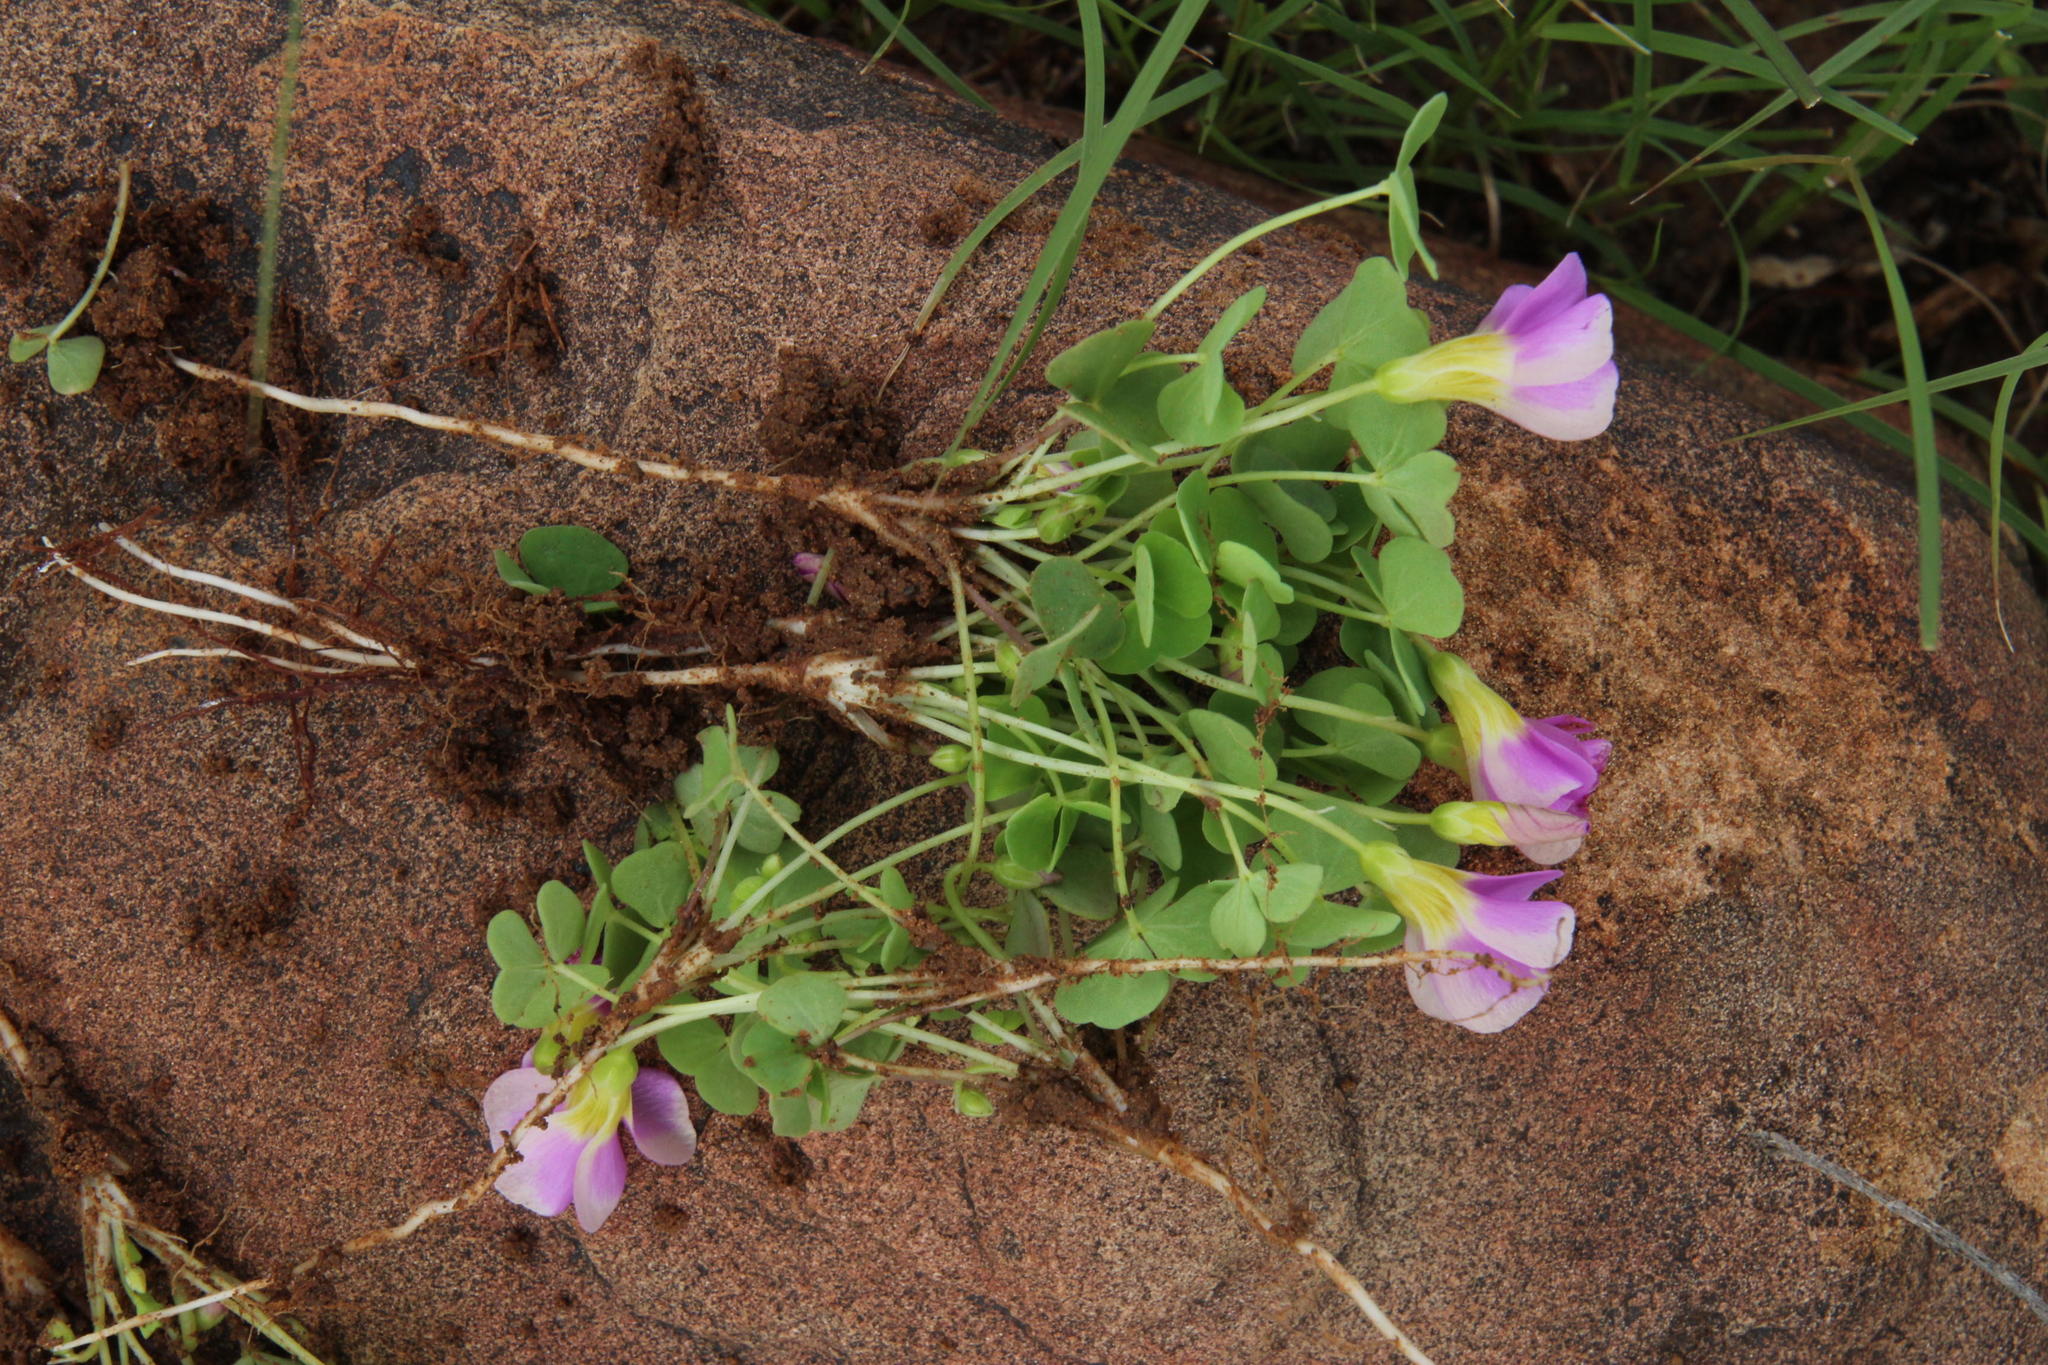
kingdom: Plantae
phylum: Tracheophyta
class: Magnoliopsida
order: Oxalidales
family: Oxalidaceae
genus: Oxalis
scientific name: Oxalis obliquifolia
